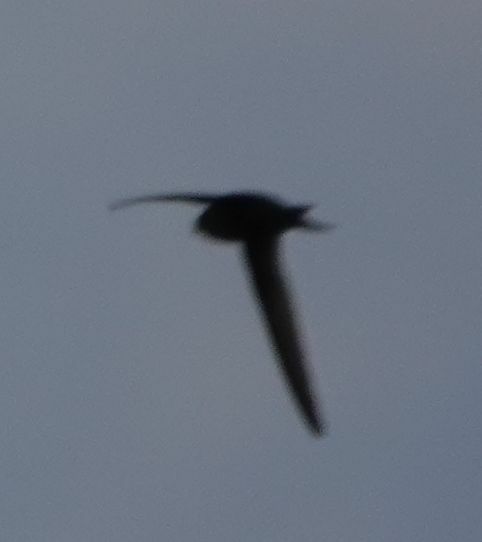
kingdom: Animalia
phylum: Chordata
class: Aves
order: Apodiformes
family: Apodidae
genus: Apus
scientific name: Apus apus
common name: Common swift
